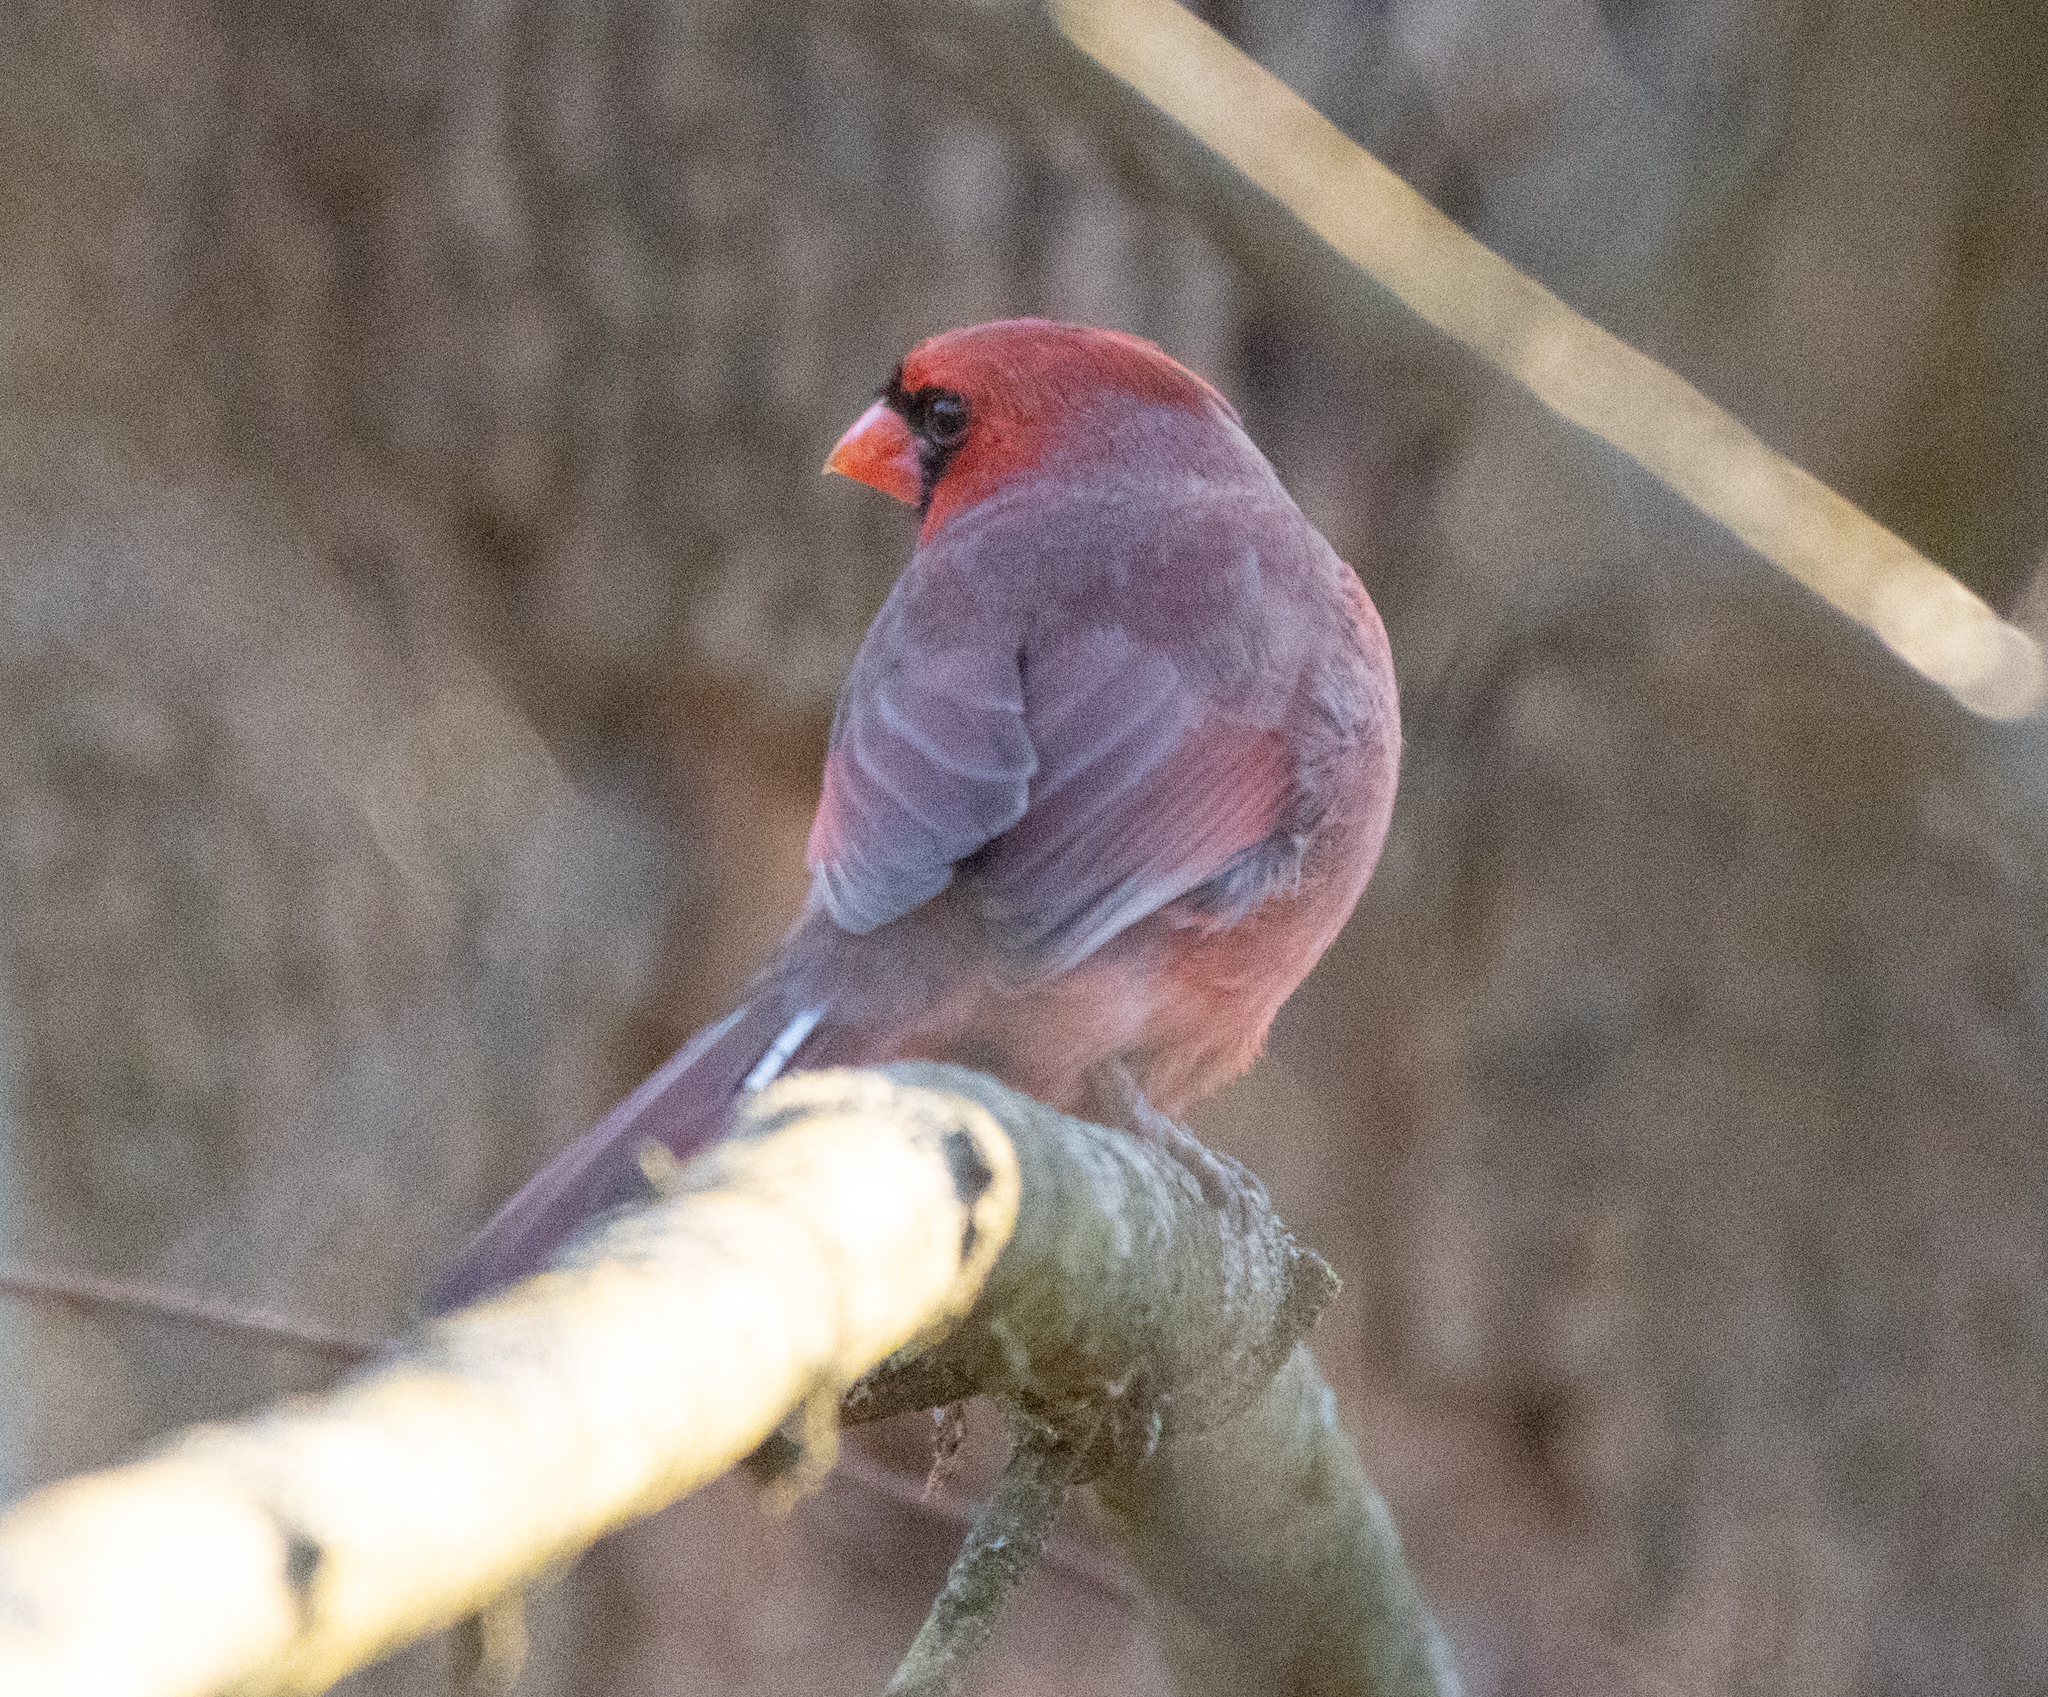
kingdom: Animalia
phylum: Chordata
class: Aves
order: Passeriformes
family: Cardinalidae
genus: Cardinalis
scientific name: Cardinalis cardinalis
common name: Northern cardinal
